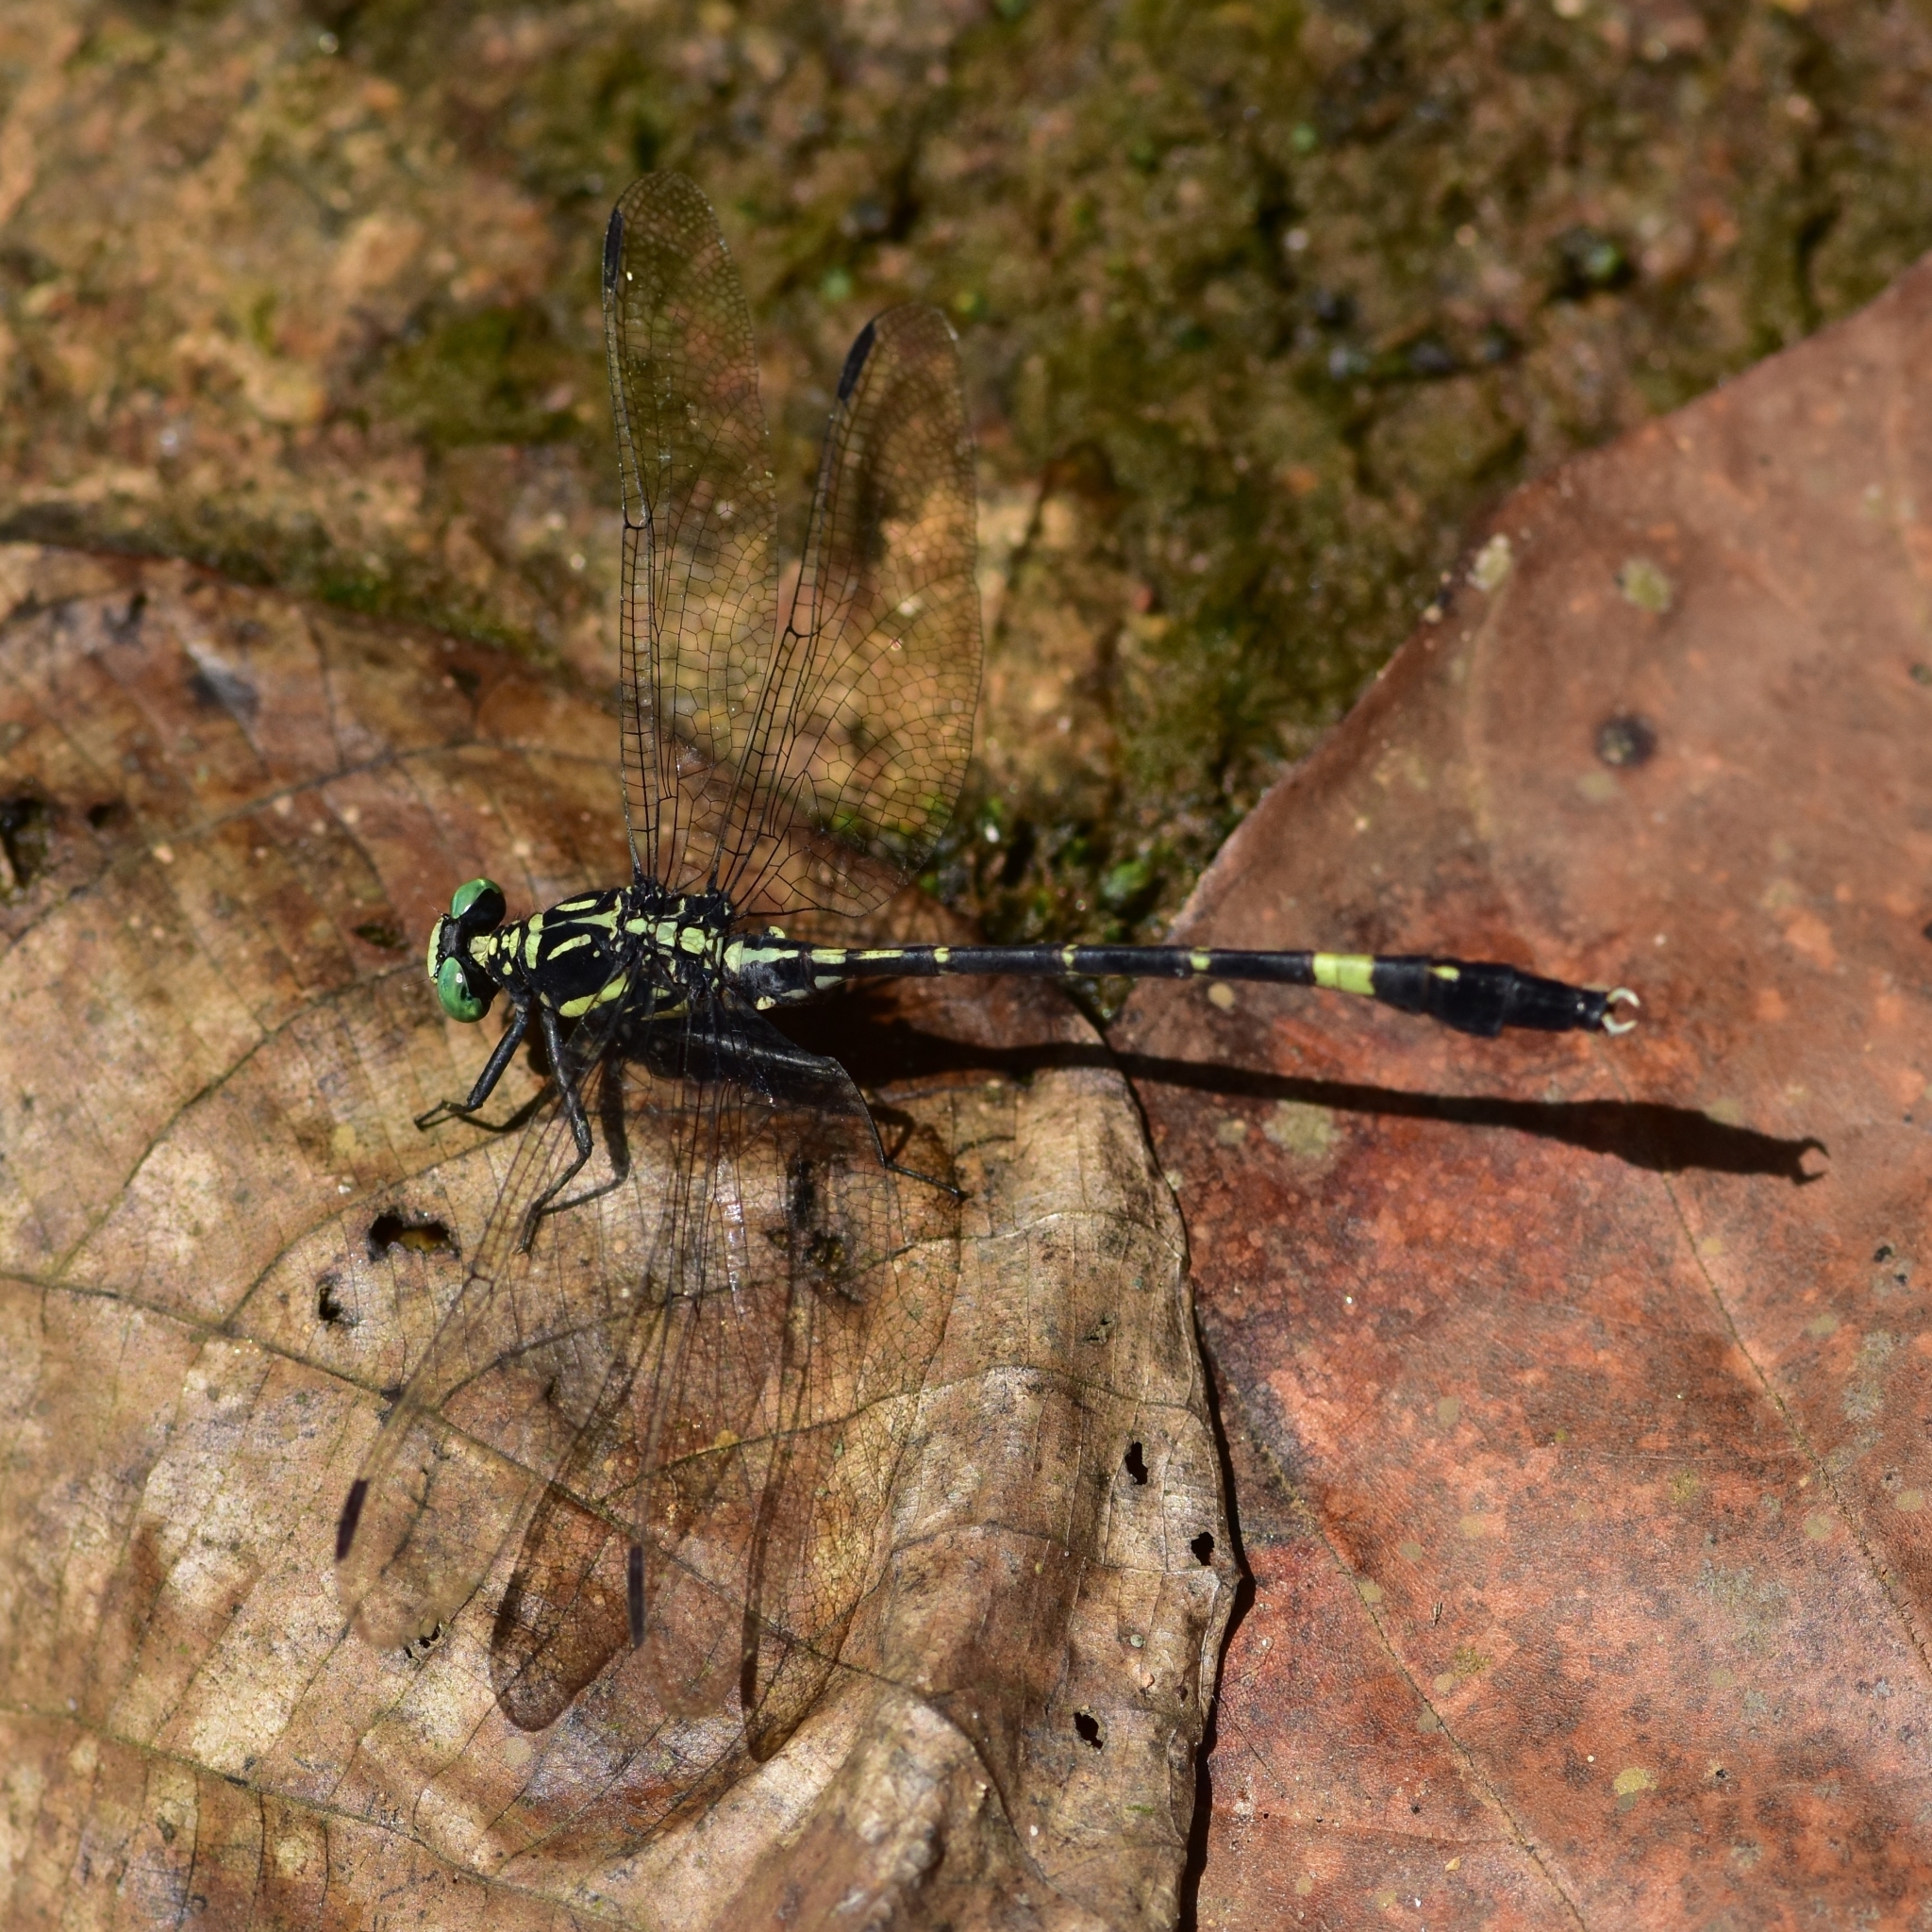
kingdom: Animalia
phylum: Arthropoda
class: Insecta
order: Odonata
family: Gomphidae
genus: Merogomphus
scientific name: Merogomphus tamaracherriensis
